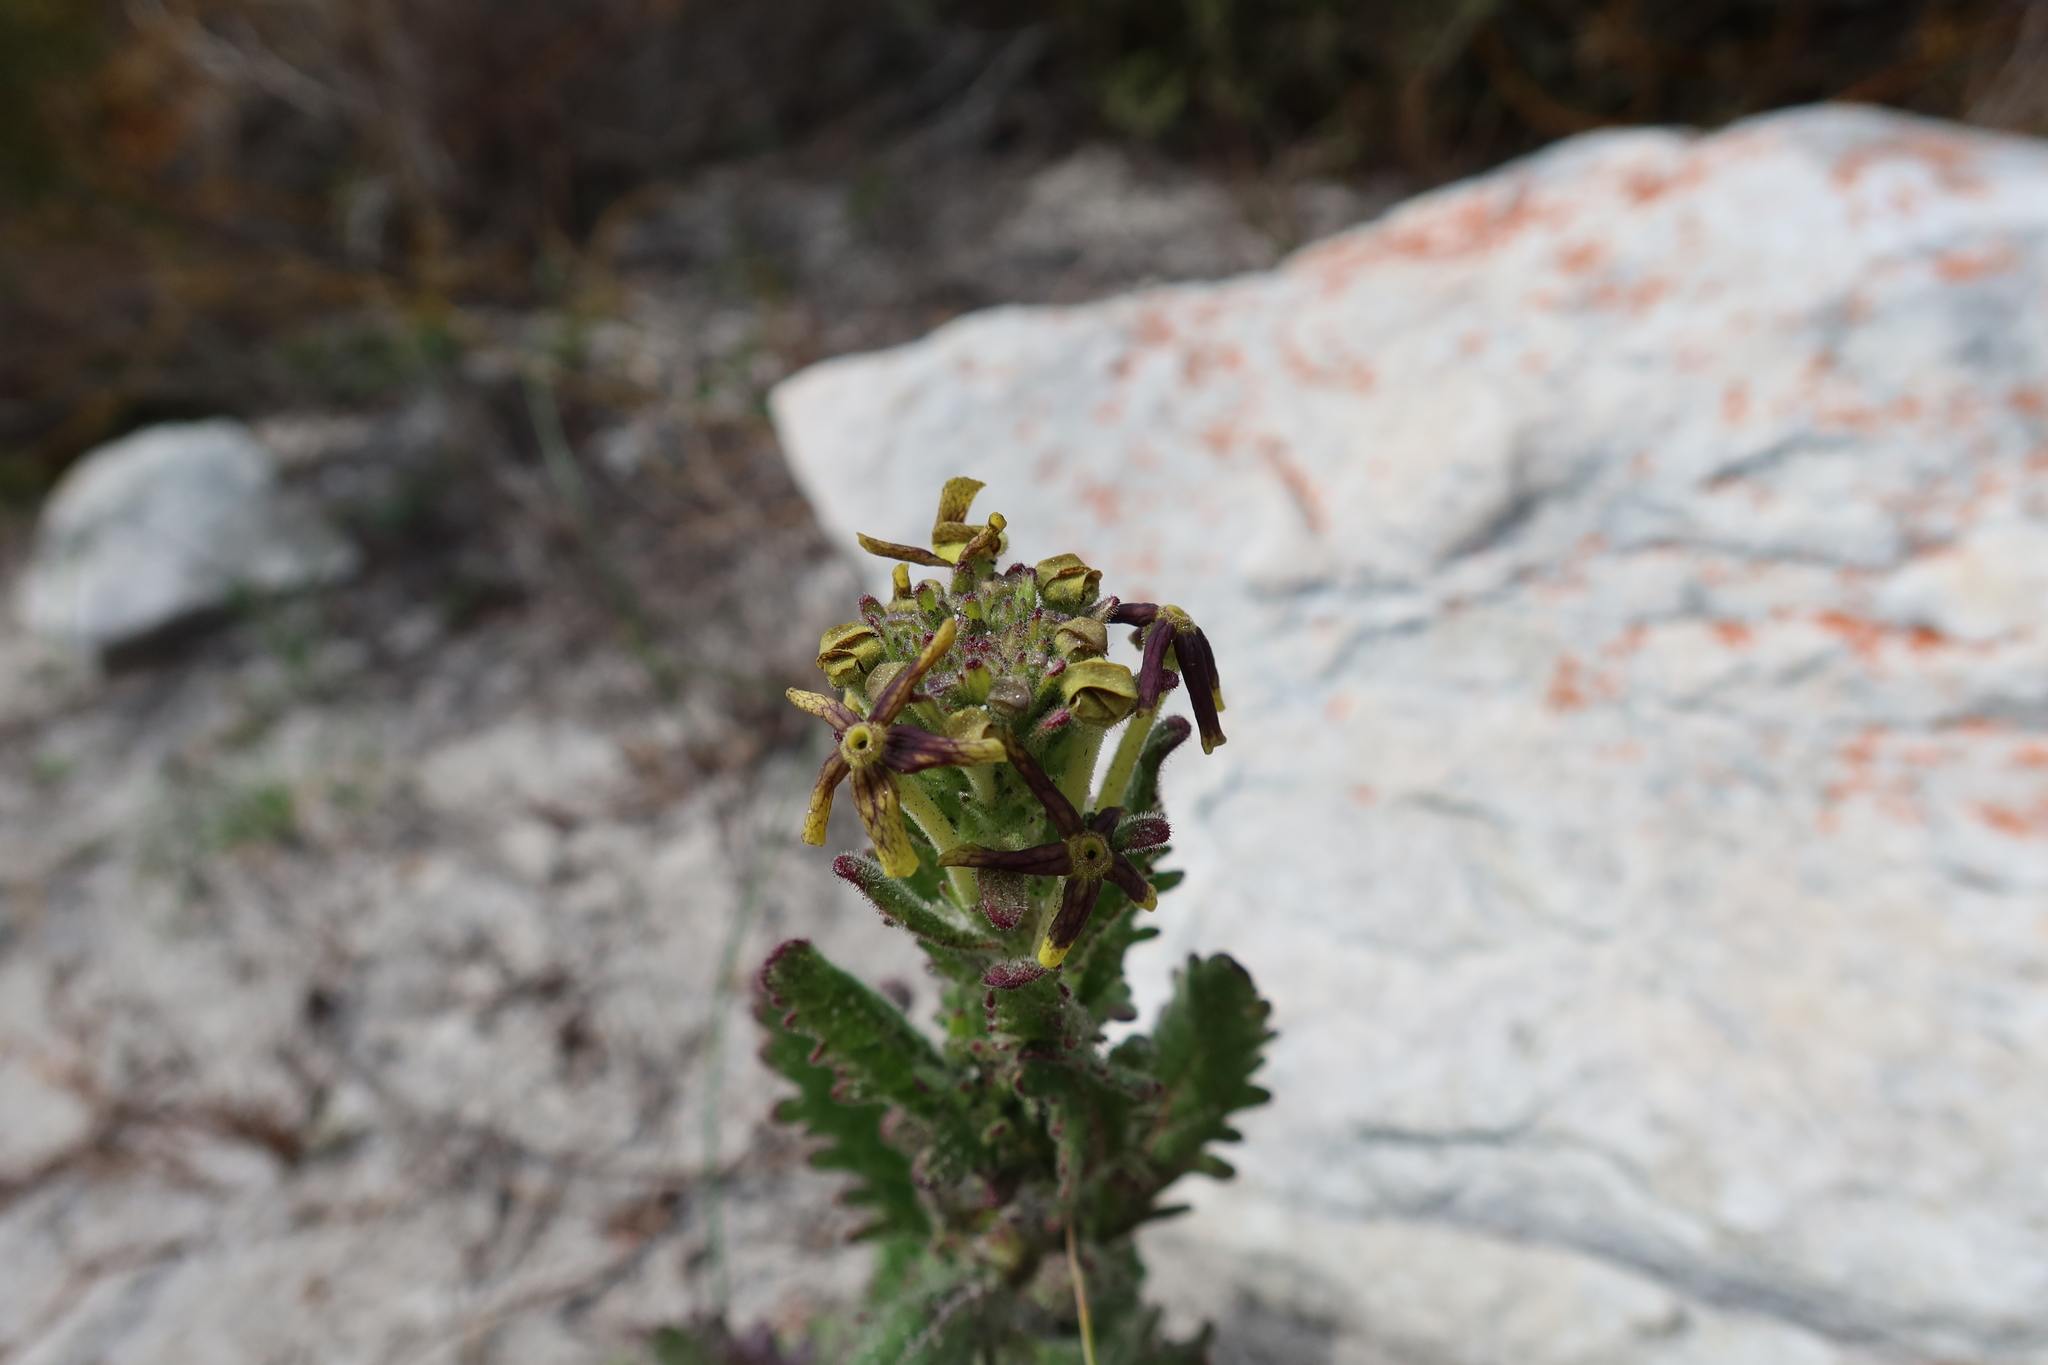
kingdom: Plantae
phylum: Tracheophyta
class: Magnoliopsida
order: Lamiales
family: Scrophulariaceae
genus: Lyperia
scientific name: Lyperia tristis
